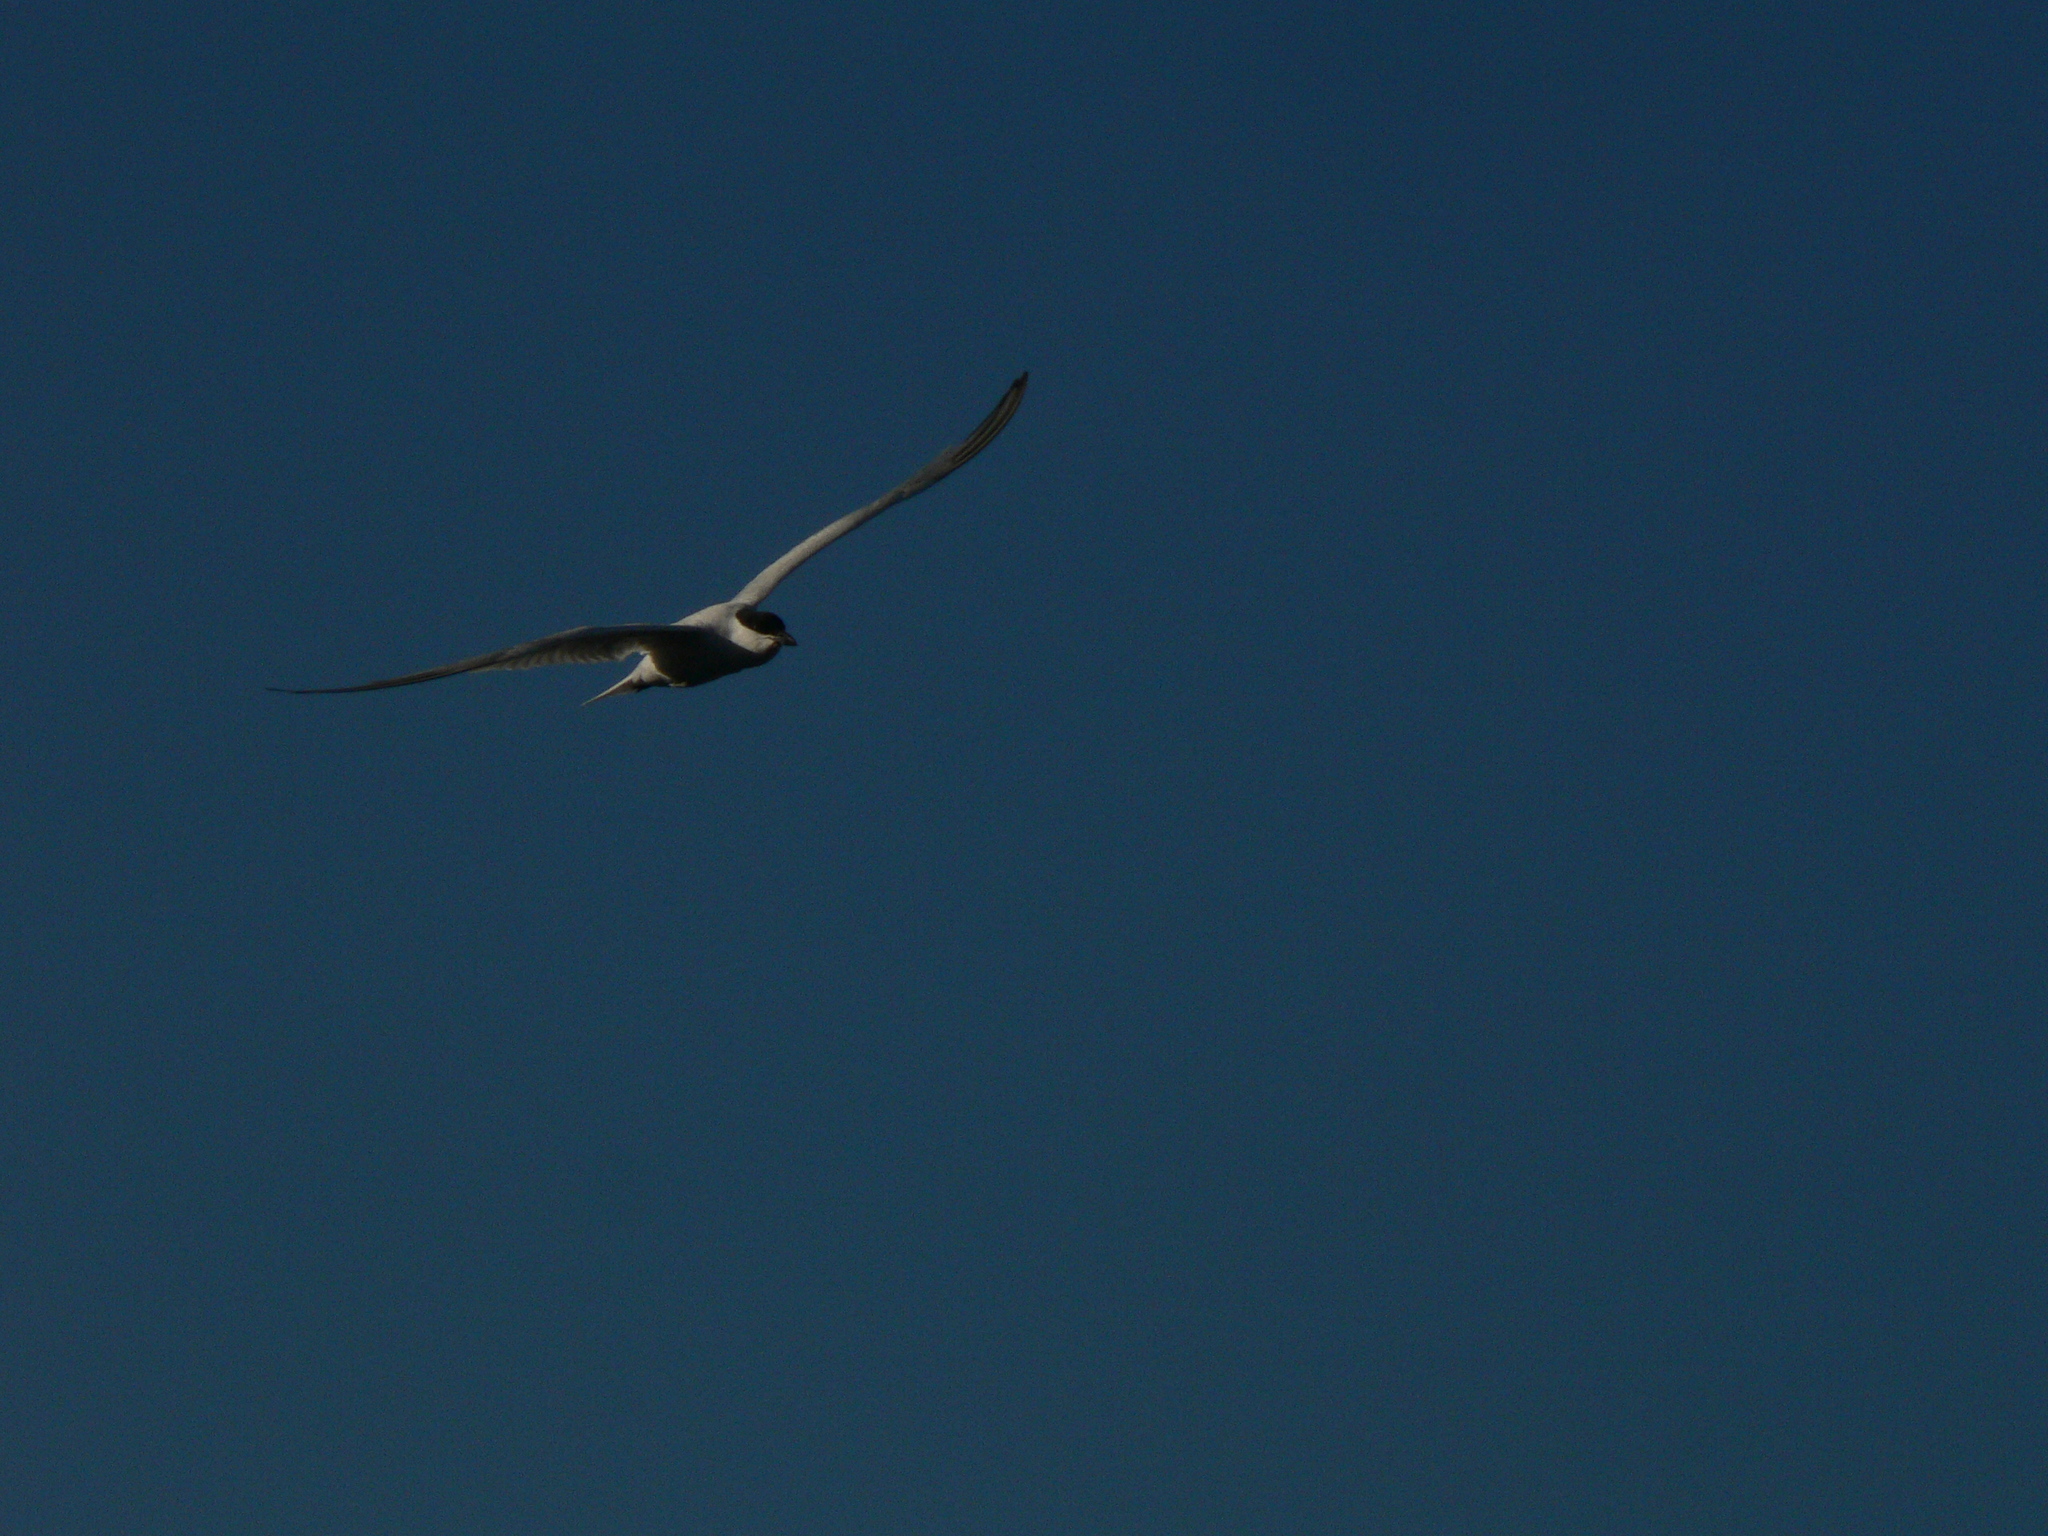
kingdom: Animalia
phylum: Chordata
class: Aves
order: Charadriiformes
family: Laridae
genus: Gelochelidon
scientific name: Gelochelidon macrotarsa
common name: Australian tern
